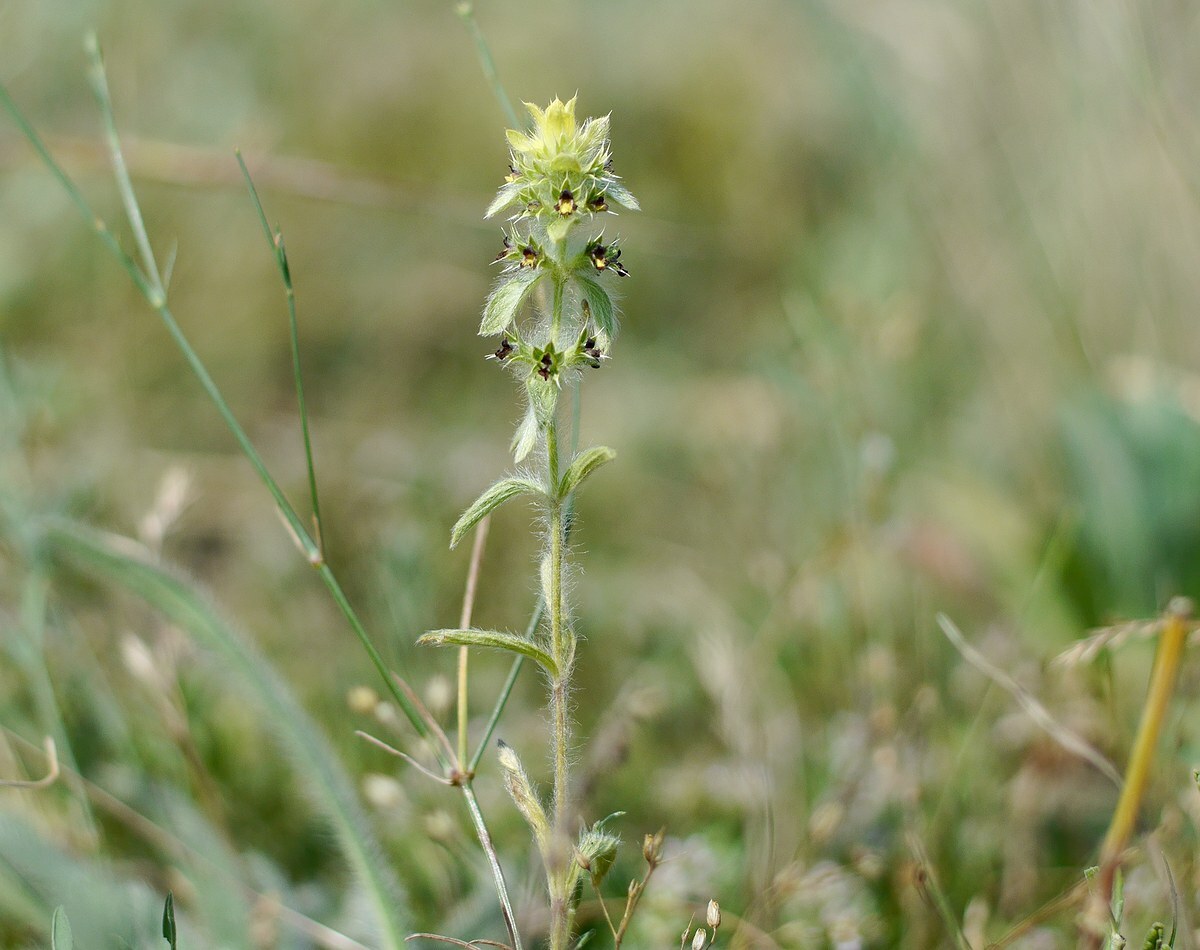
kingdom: Plantae
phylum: Tracheophyta
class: Magnoliopsida
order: Lamiales
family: Lamiaceae
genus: Sideritis
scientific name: Sideritis montana
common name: Mountain ironwort
